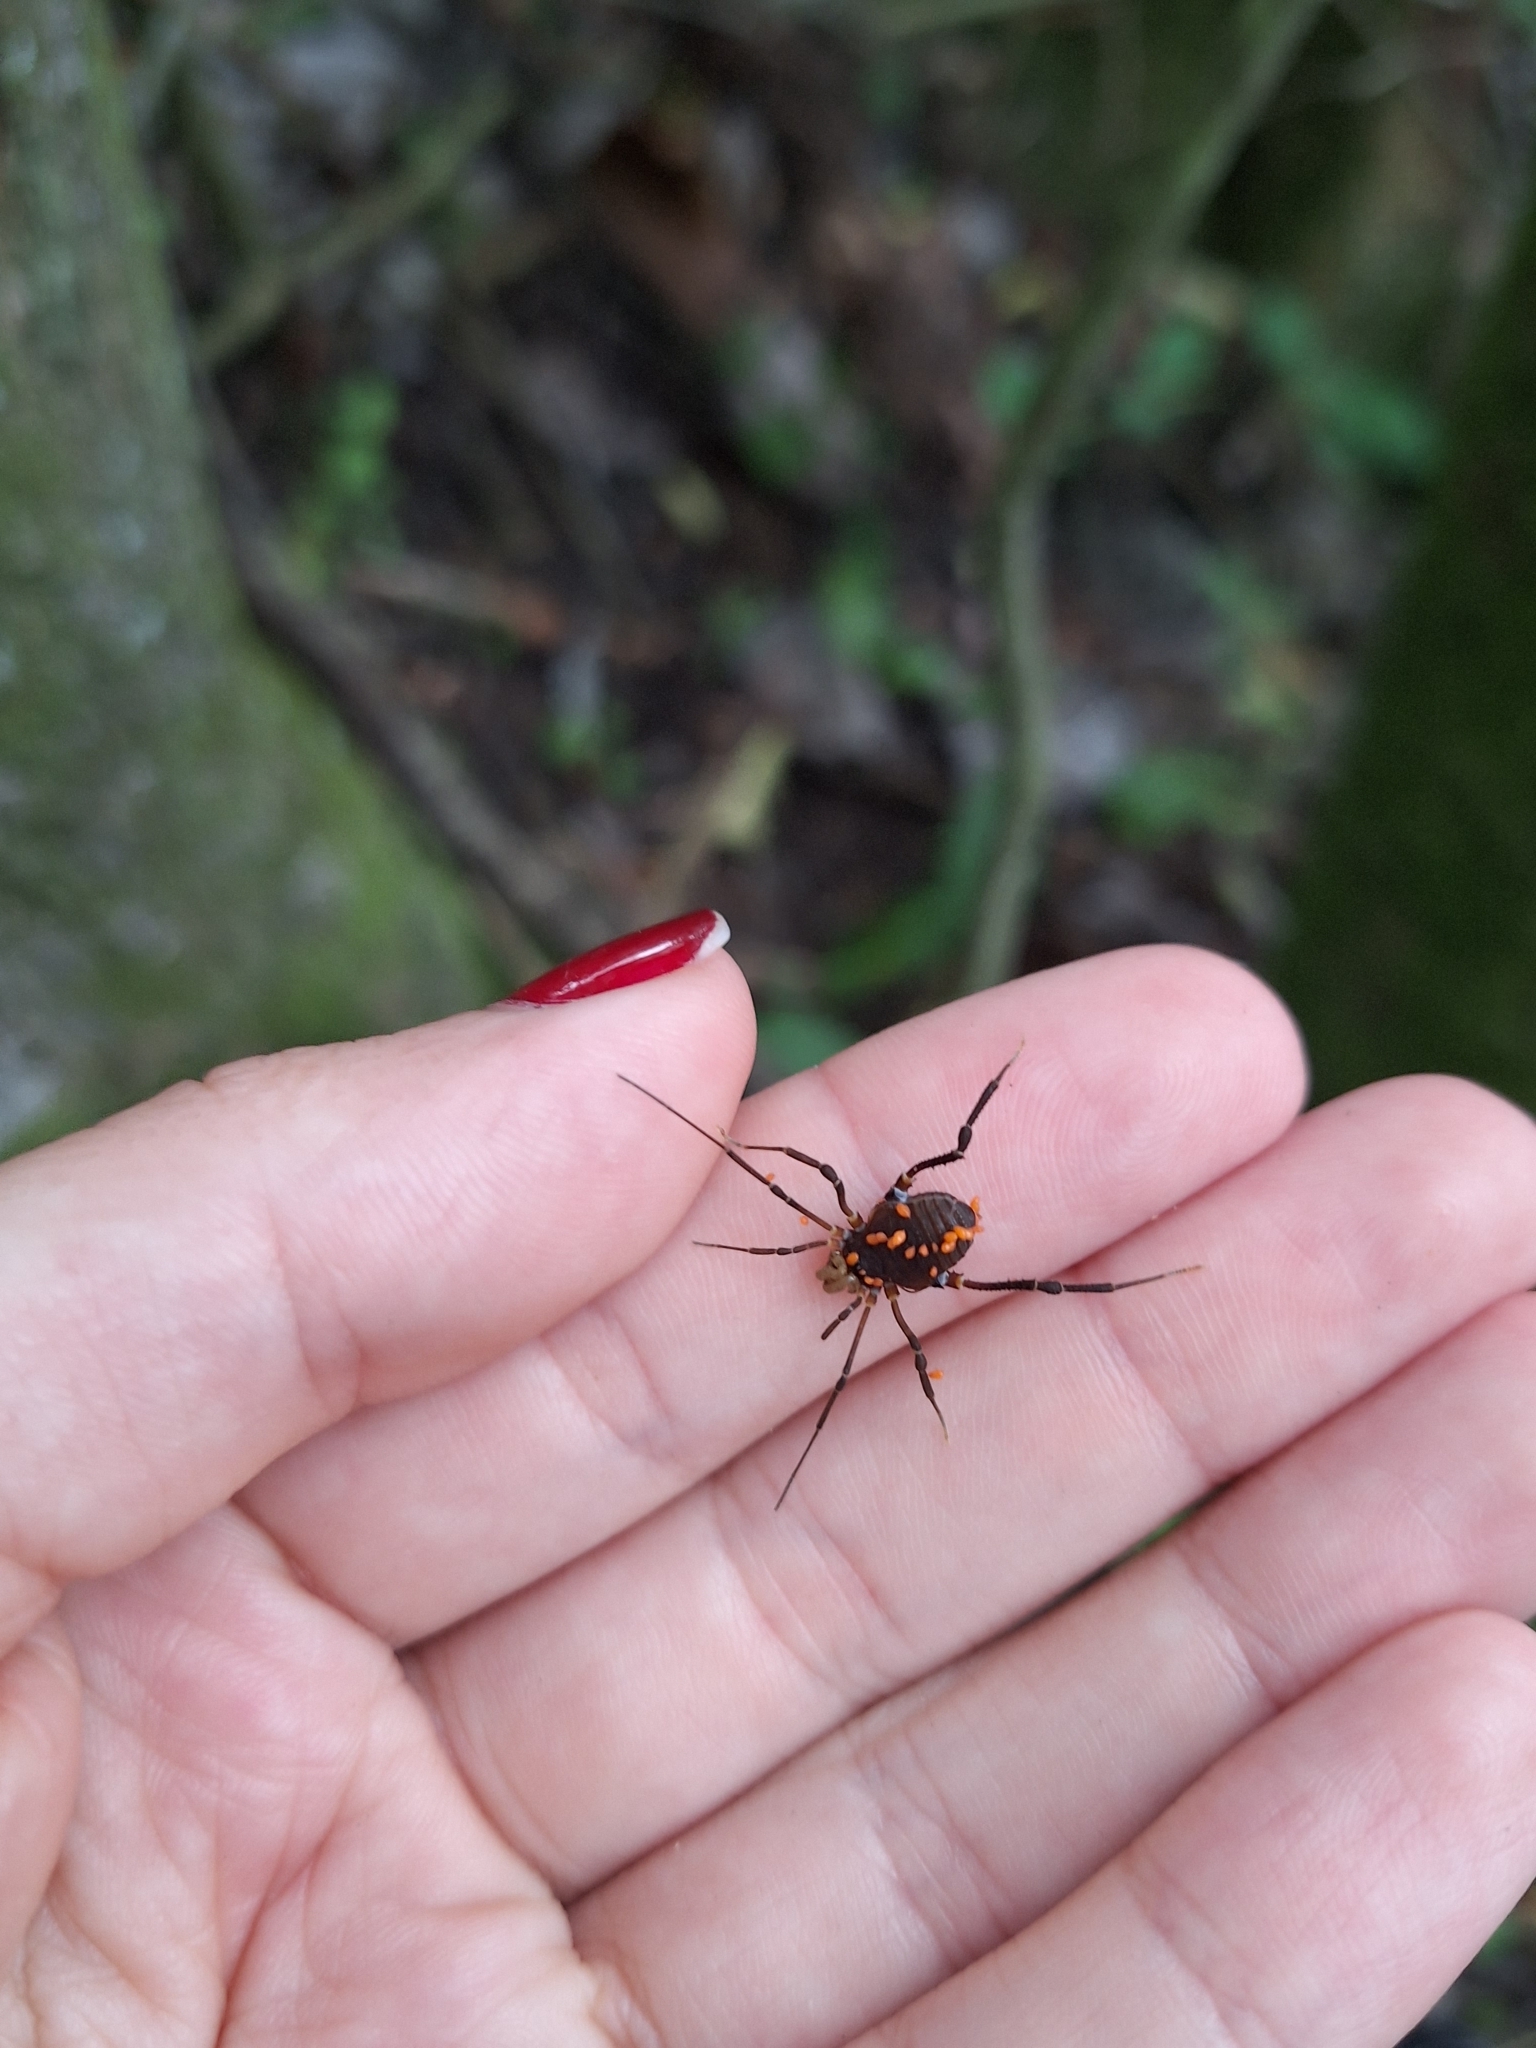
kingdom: Animalia
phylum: Arthropoda
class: Arachnida
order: Opiliones
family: Gonyleptidae
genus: Opisthoplatus
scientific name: Opisthoplatus prospicuus
